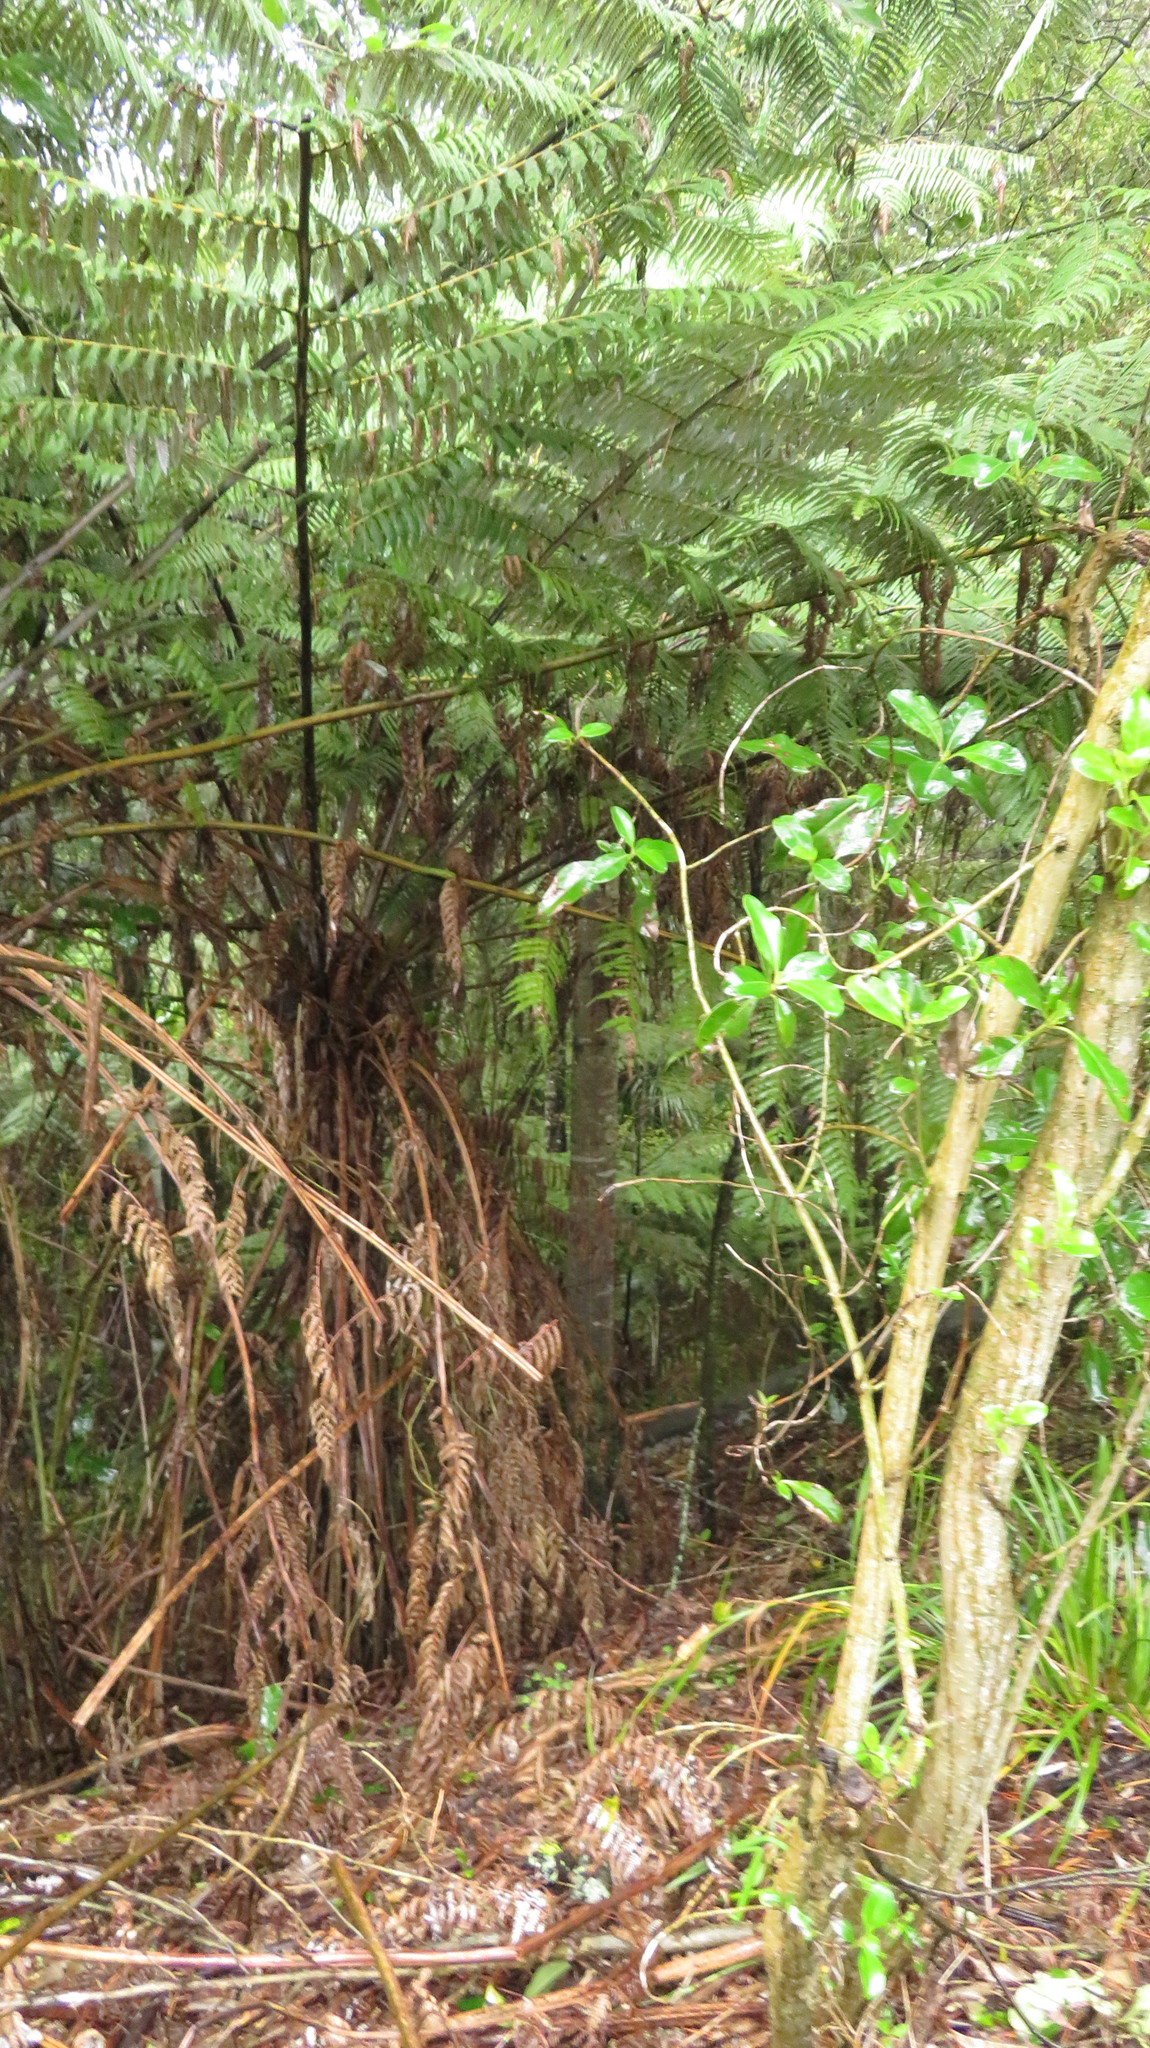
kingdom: Plantae
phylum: Tracheophyta
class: Polypodiopsida
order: Cyatheales
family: Cyatheaceae
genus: Alsophila
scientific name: Alsophila dealbata
